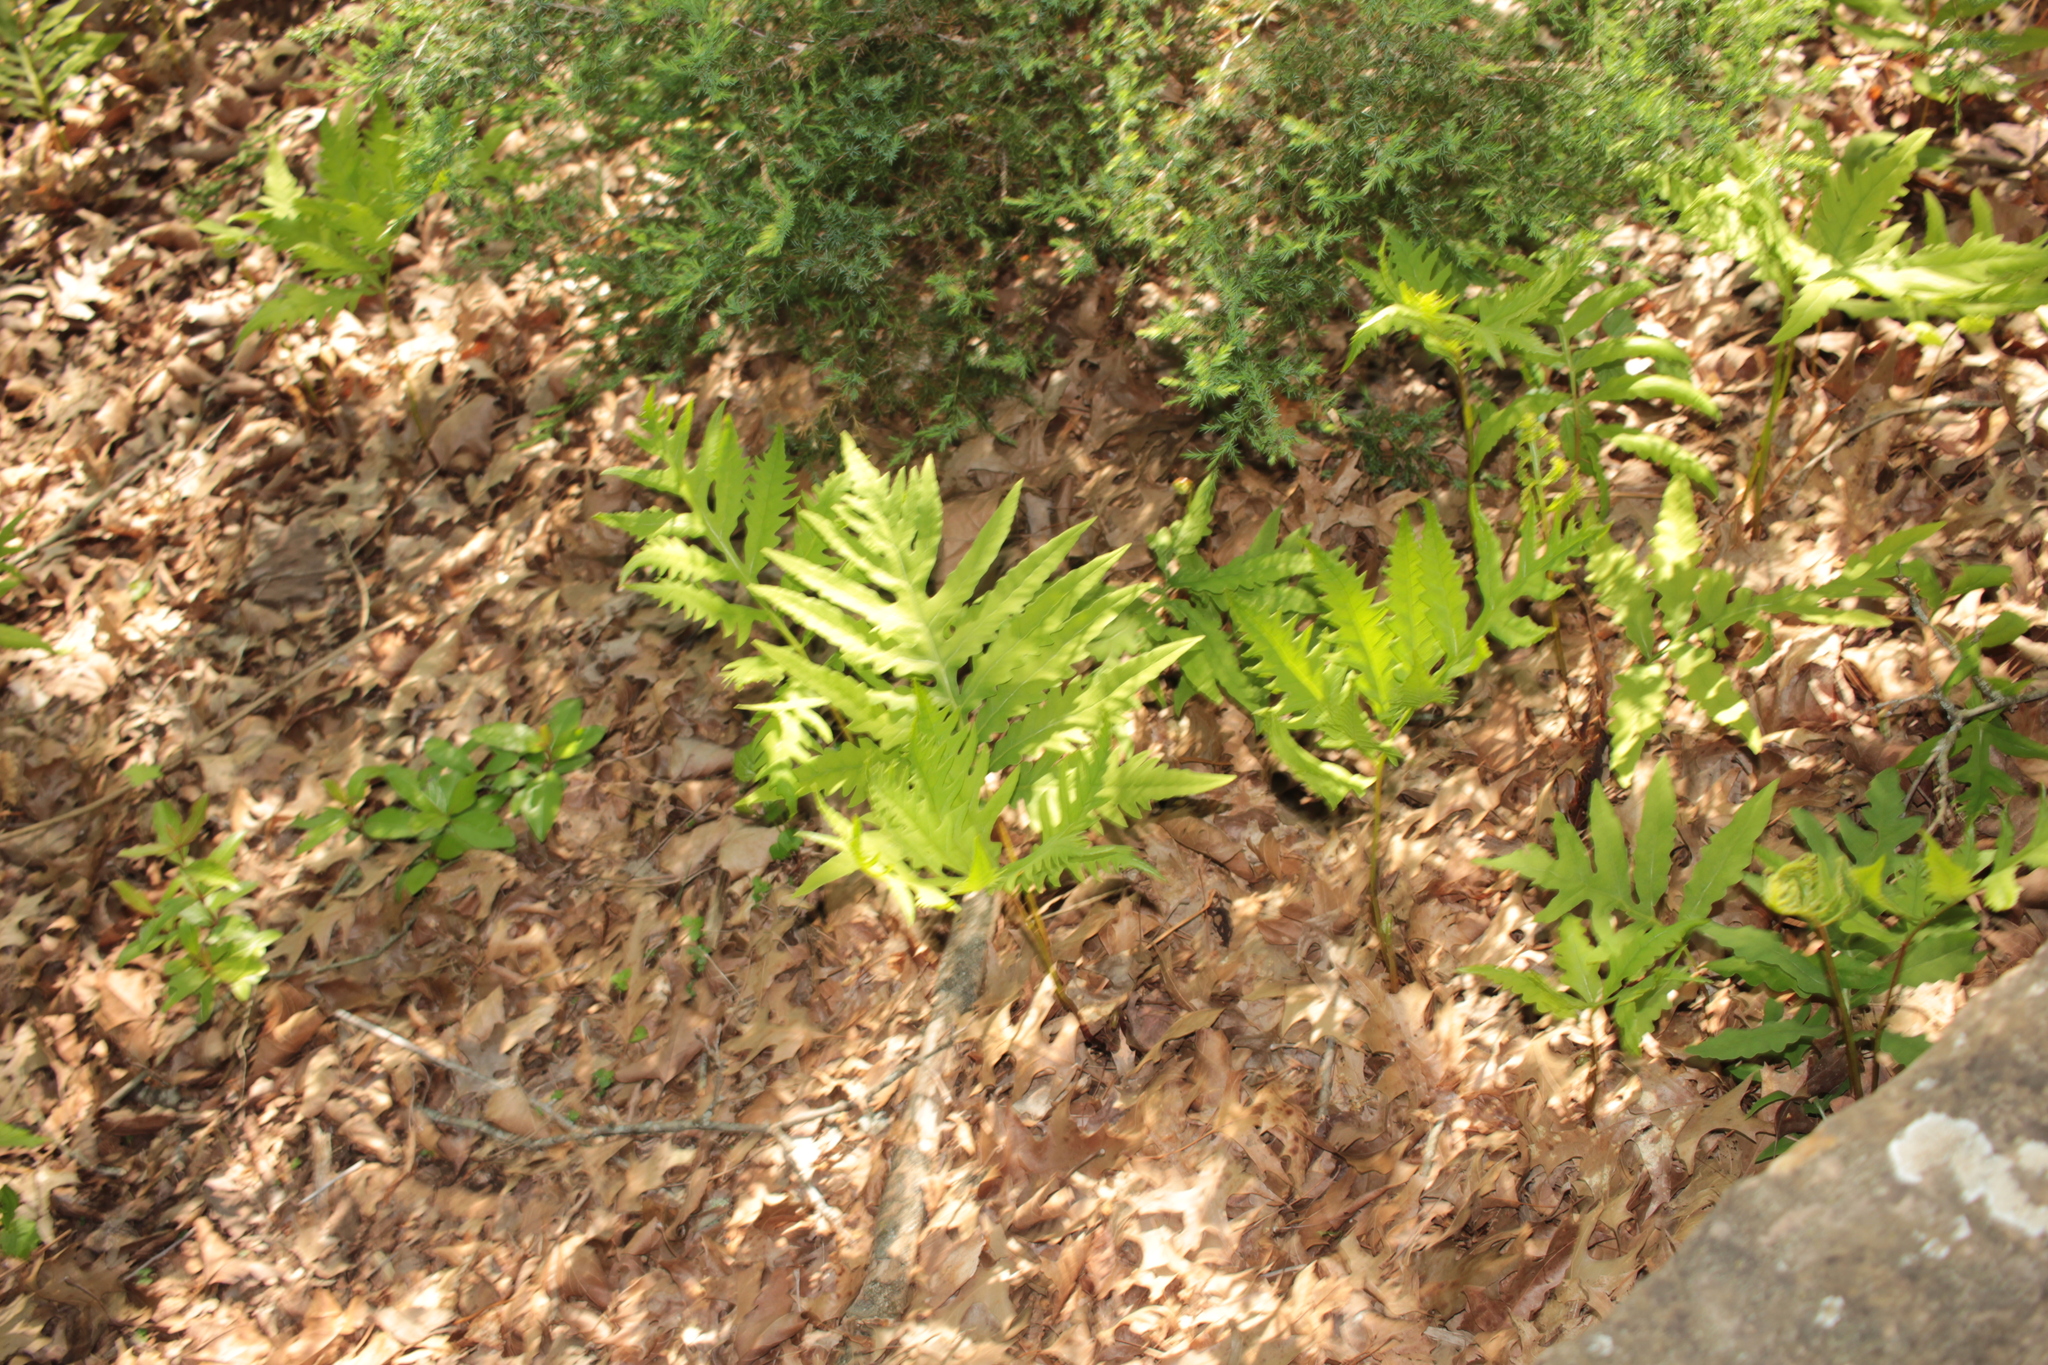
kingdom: Plantae
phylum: Tracheophyta
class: Polypodiopsida
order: Polypodiales
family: Onocleaceae
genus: Onoclea
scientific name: Onoclea sensibilis
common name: Sensitive fern
